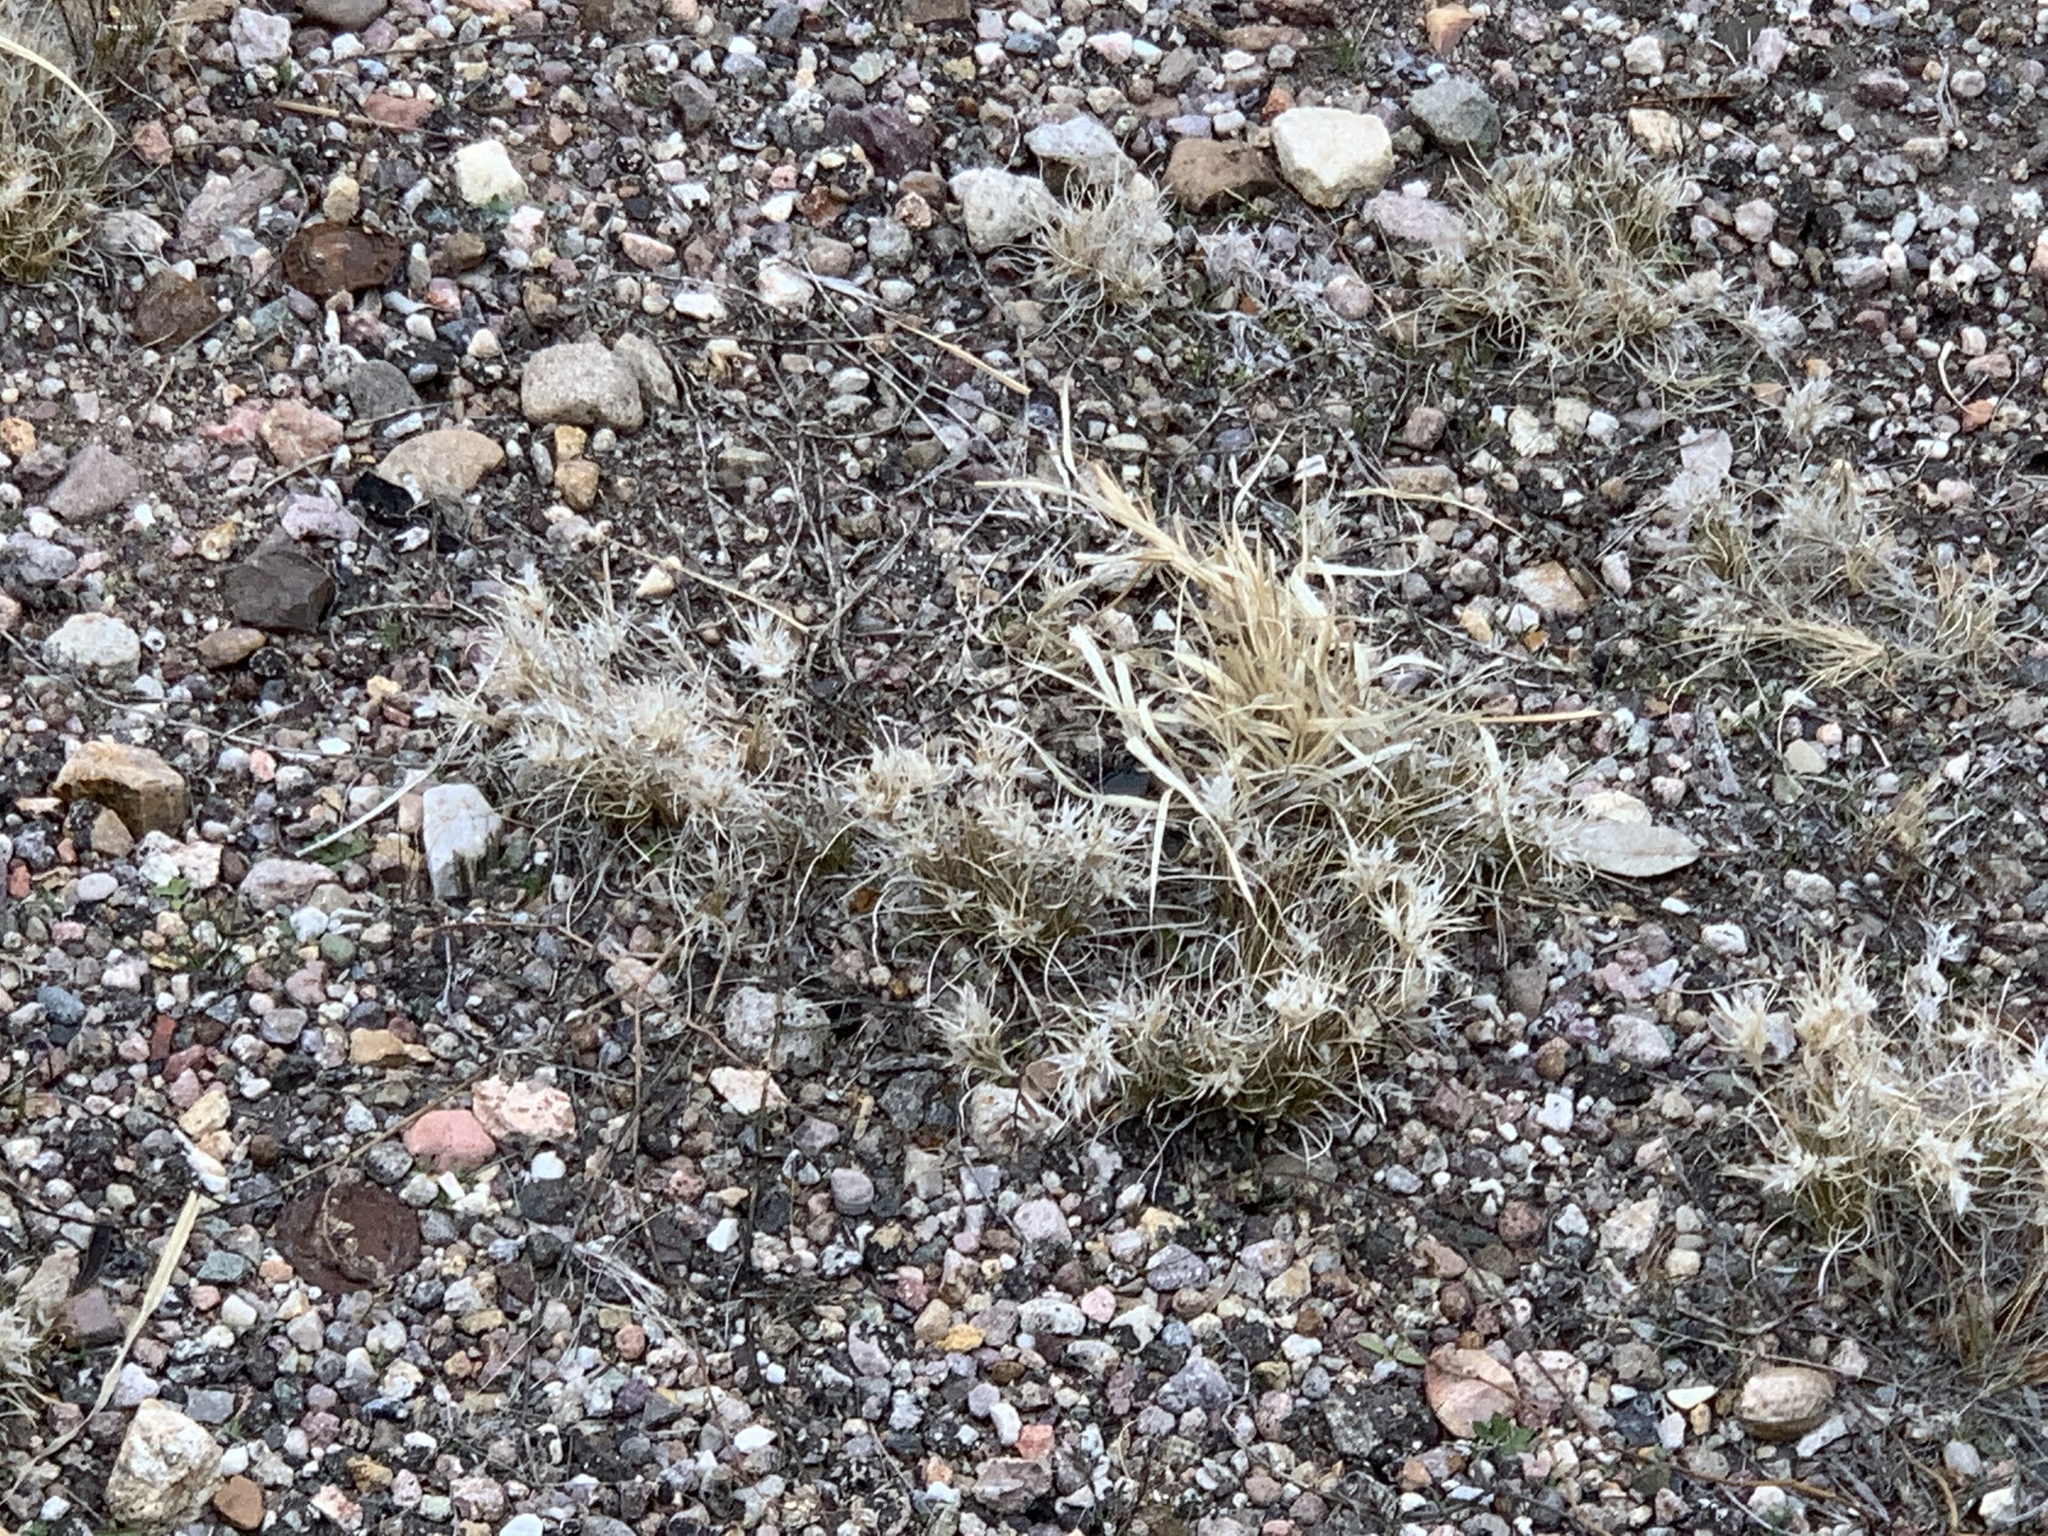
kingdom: Plantae
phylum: Tracheophyta
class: Liliopsida
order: Poales
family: Poaceae
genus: Dasyochloa
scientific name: Dasyochloa pulchella
